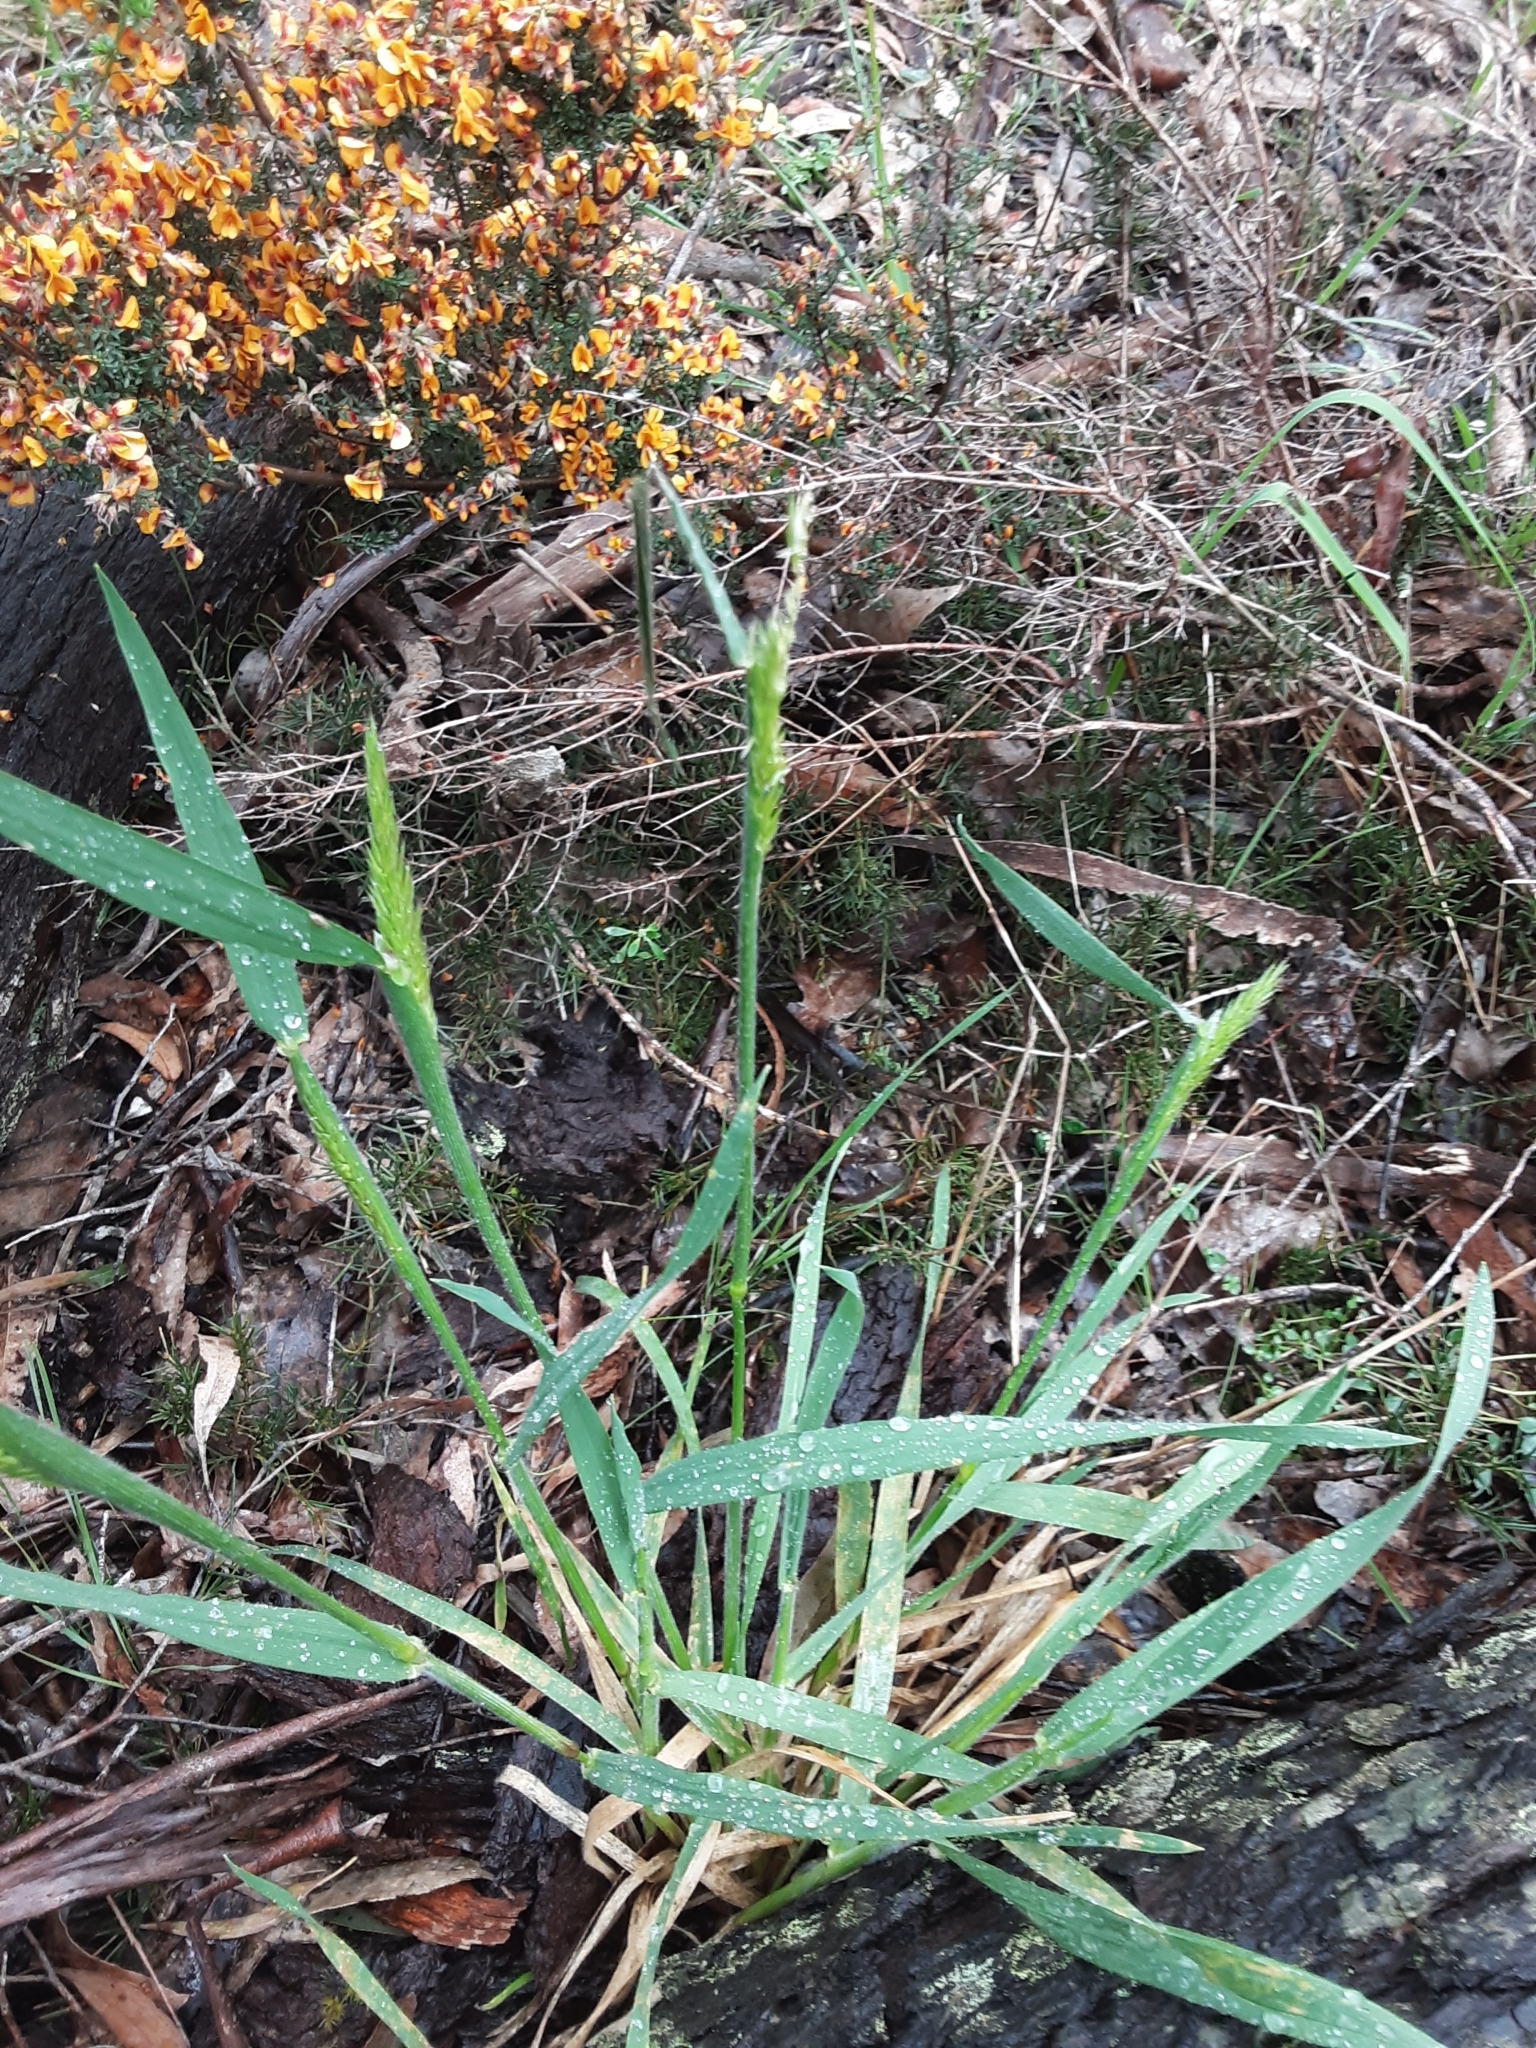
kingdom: Plantae
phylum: Tracheophyta
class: Liliopsida
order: Poales
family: Poaceae
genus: Anthoxanthum
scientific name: Anthoxanthum odoratum
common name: Sweet vernalgrass
